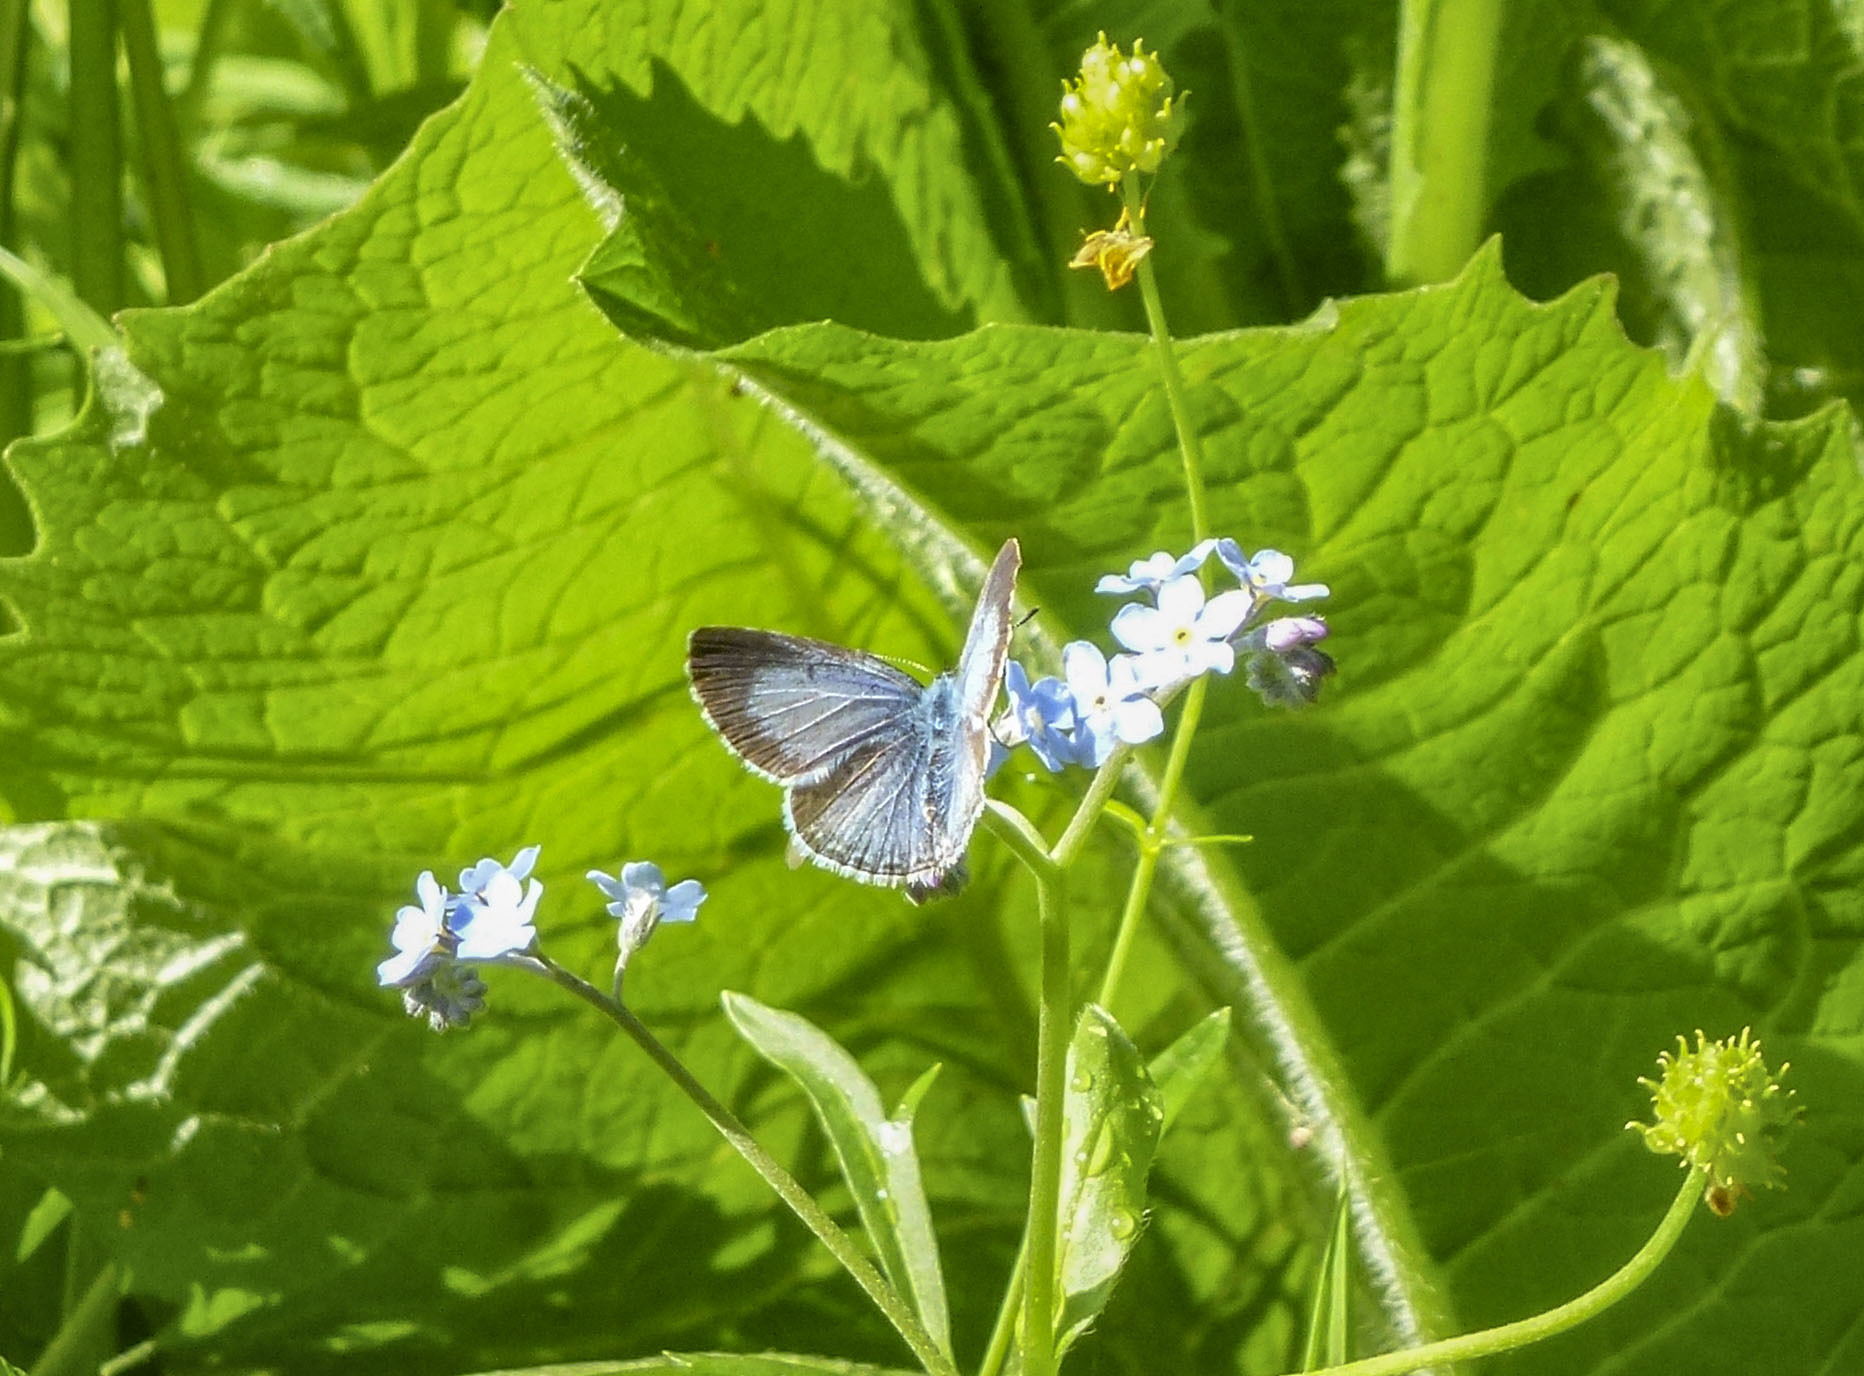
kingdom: Animalia
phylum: Arthropoda
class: Insecta
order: Lepidoptera
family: Lycaenidae
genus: Celastrina
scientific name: Celastrina argiolus
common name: Holly blue
